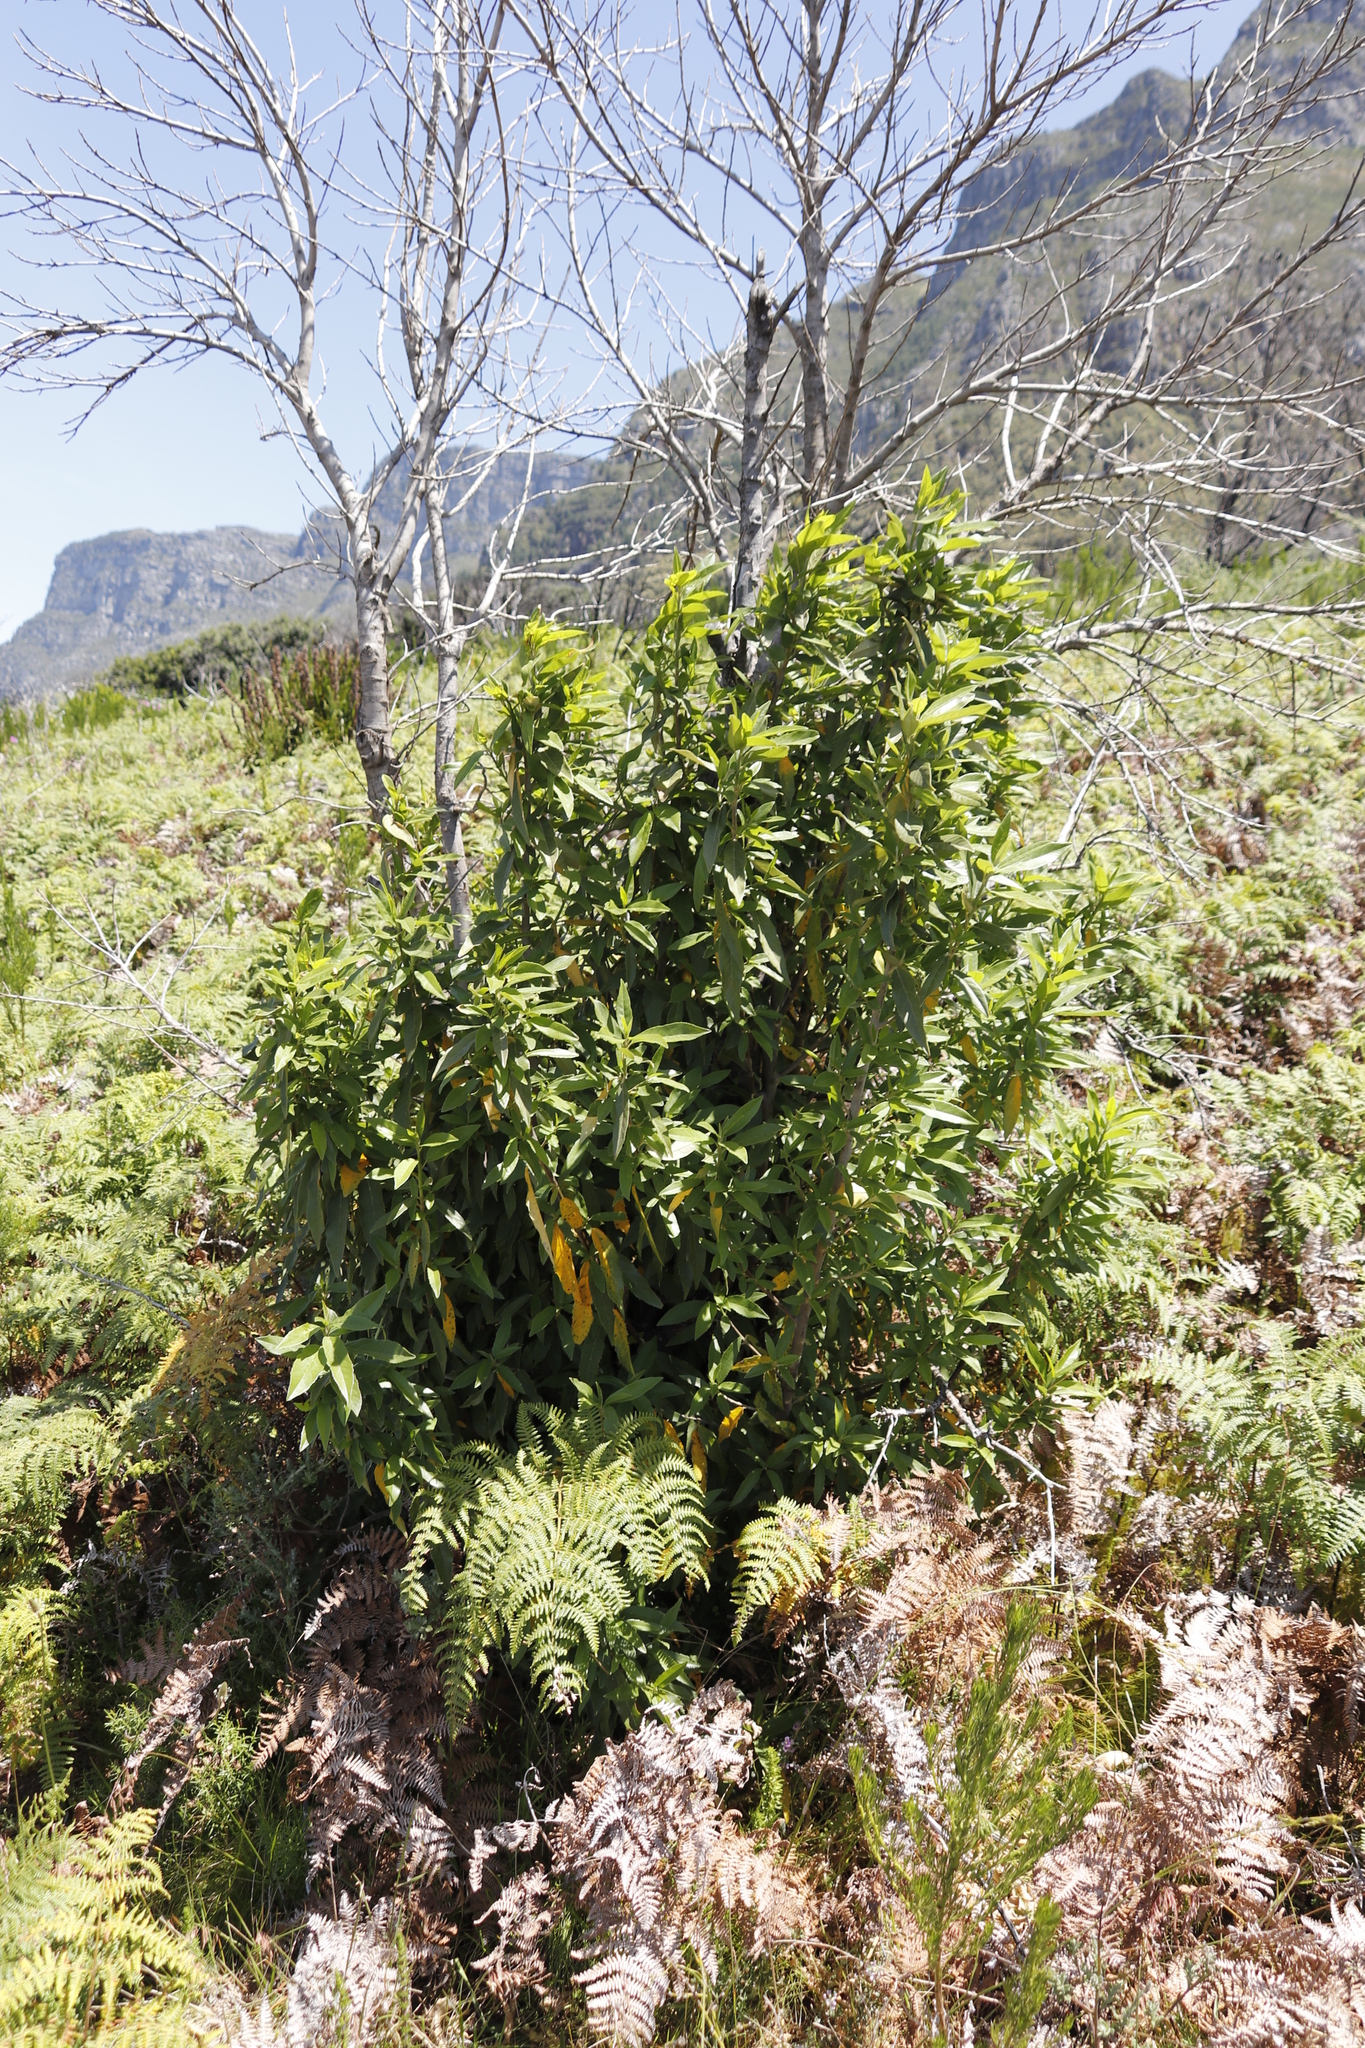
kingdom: Plantae
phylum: Tracheophyta
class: Magnoliopsida
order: Malpighiales
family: Achariaceae
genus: Kiggelaria
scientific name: Kiggelaria africana
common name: Wild peach
